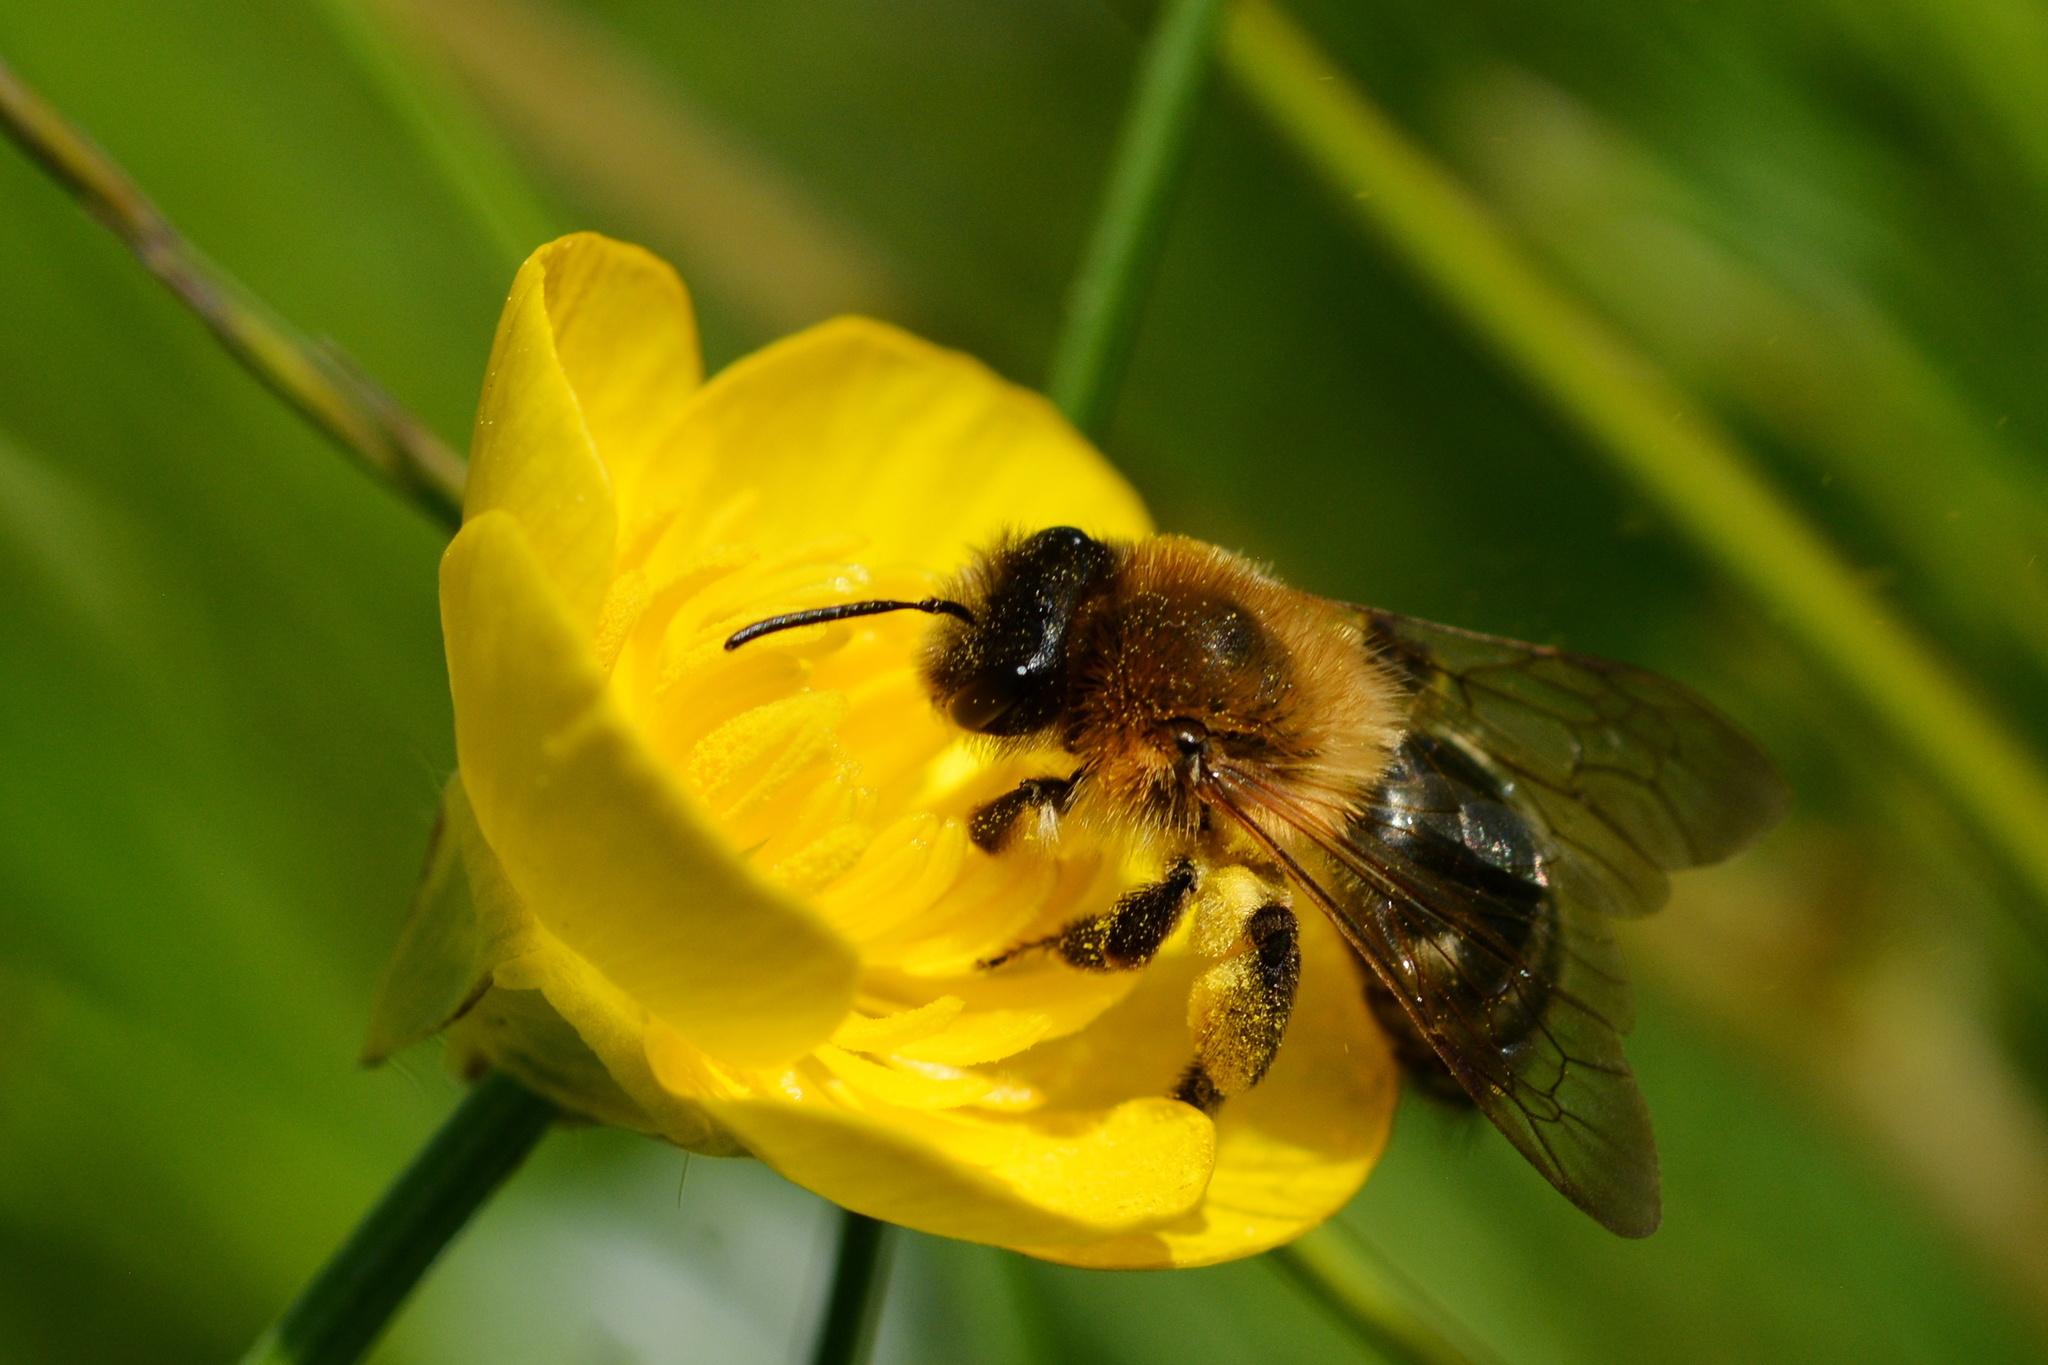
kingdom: Animalia
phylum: Arthropoda
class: Insecta
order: Hymenoptera
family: Andrenidae
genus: Andrena
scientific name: Andrena nitida
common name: Grey-patched mining bee
